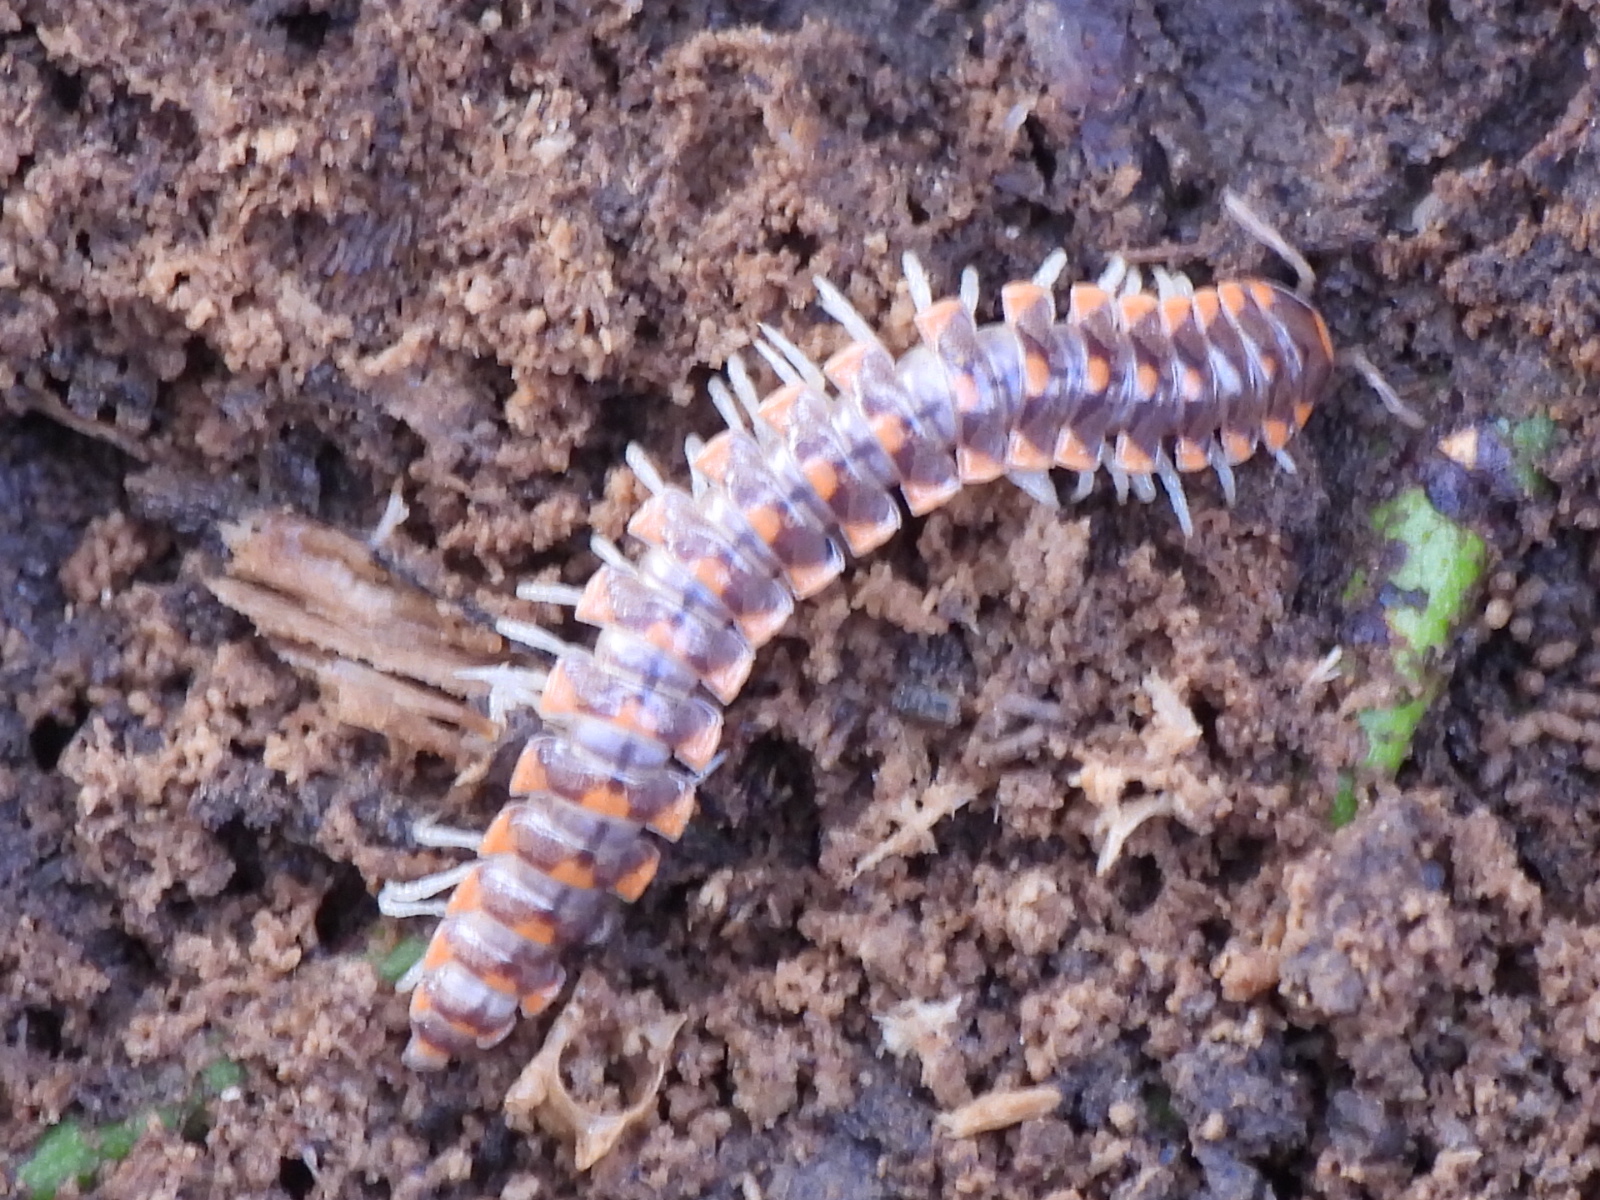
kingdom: Animalia
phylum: Arthropoda
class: Diplopoda
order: Polydesmida
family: Xystodesmidae
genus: Euryurus
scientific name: Euryurus leachii
